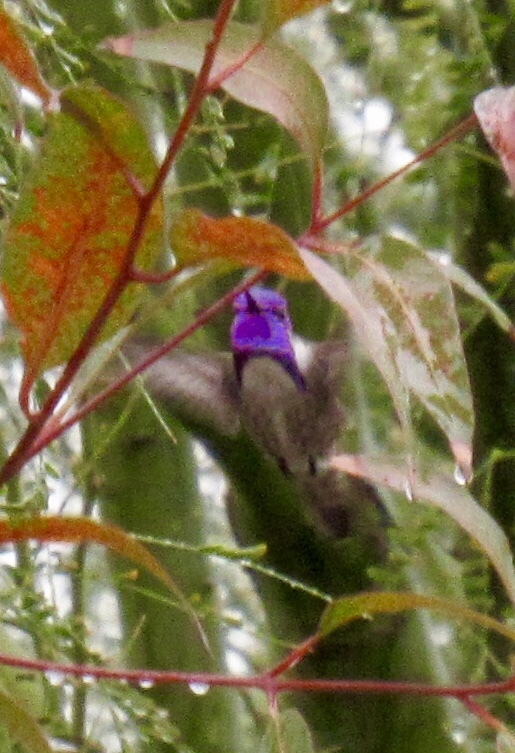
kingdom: Animalia
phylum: Chordata
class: Aves
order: Apodiformes
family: Trochilidae
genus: Calypte
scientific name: Calypte costae
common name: Costa's hummingbird
